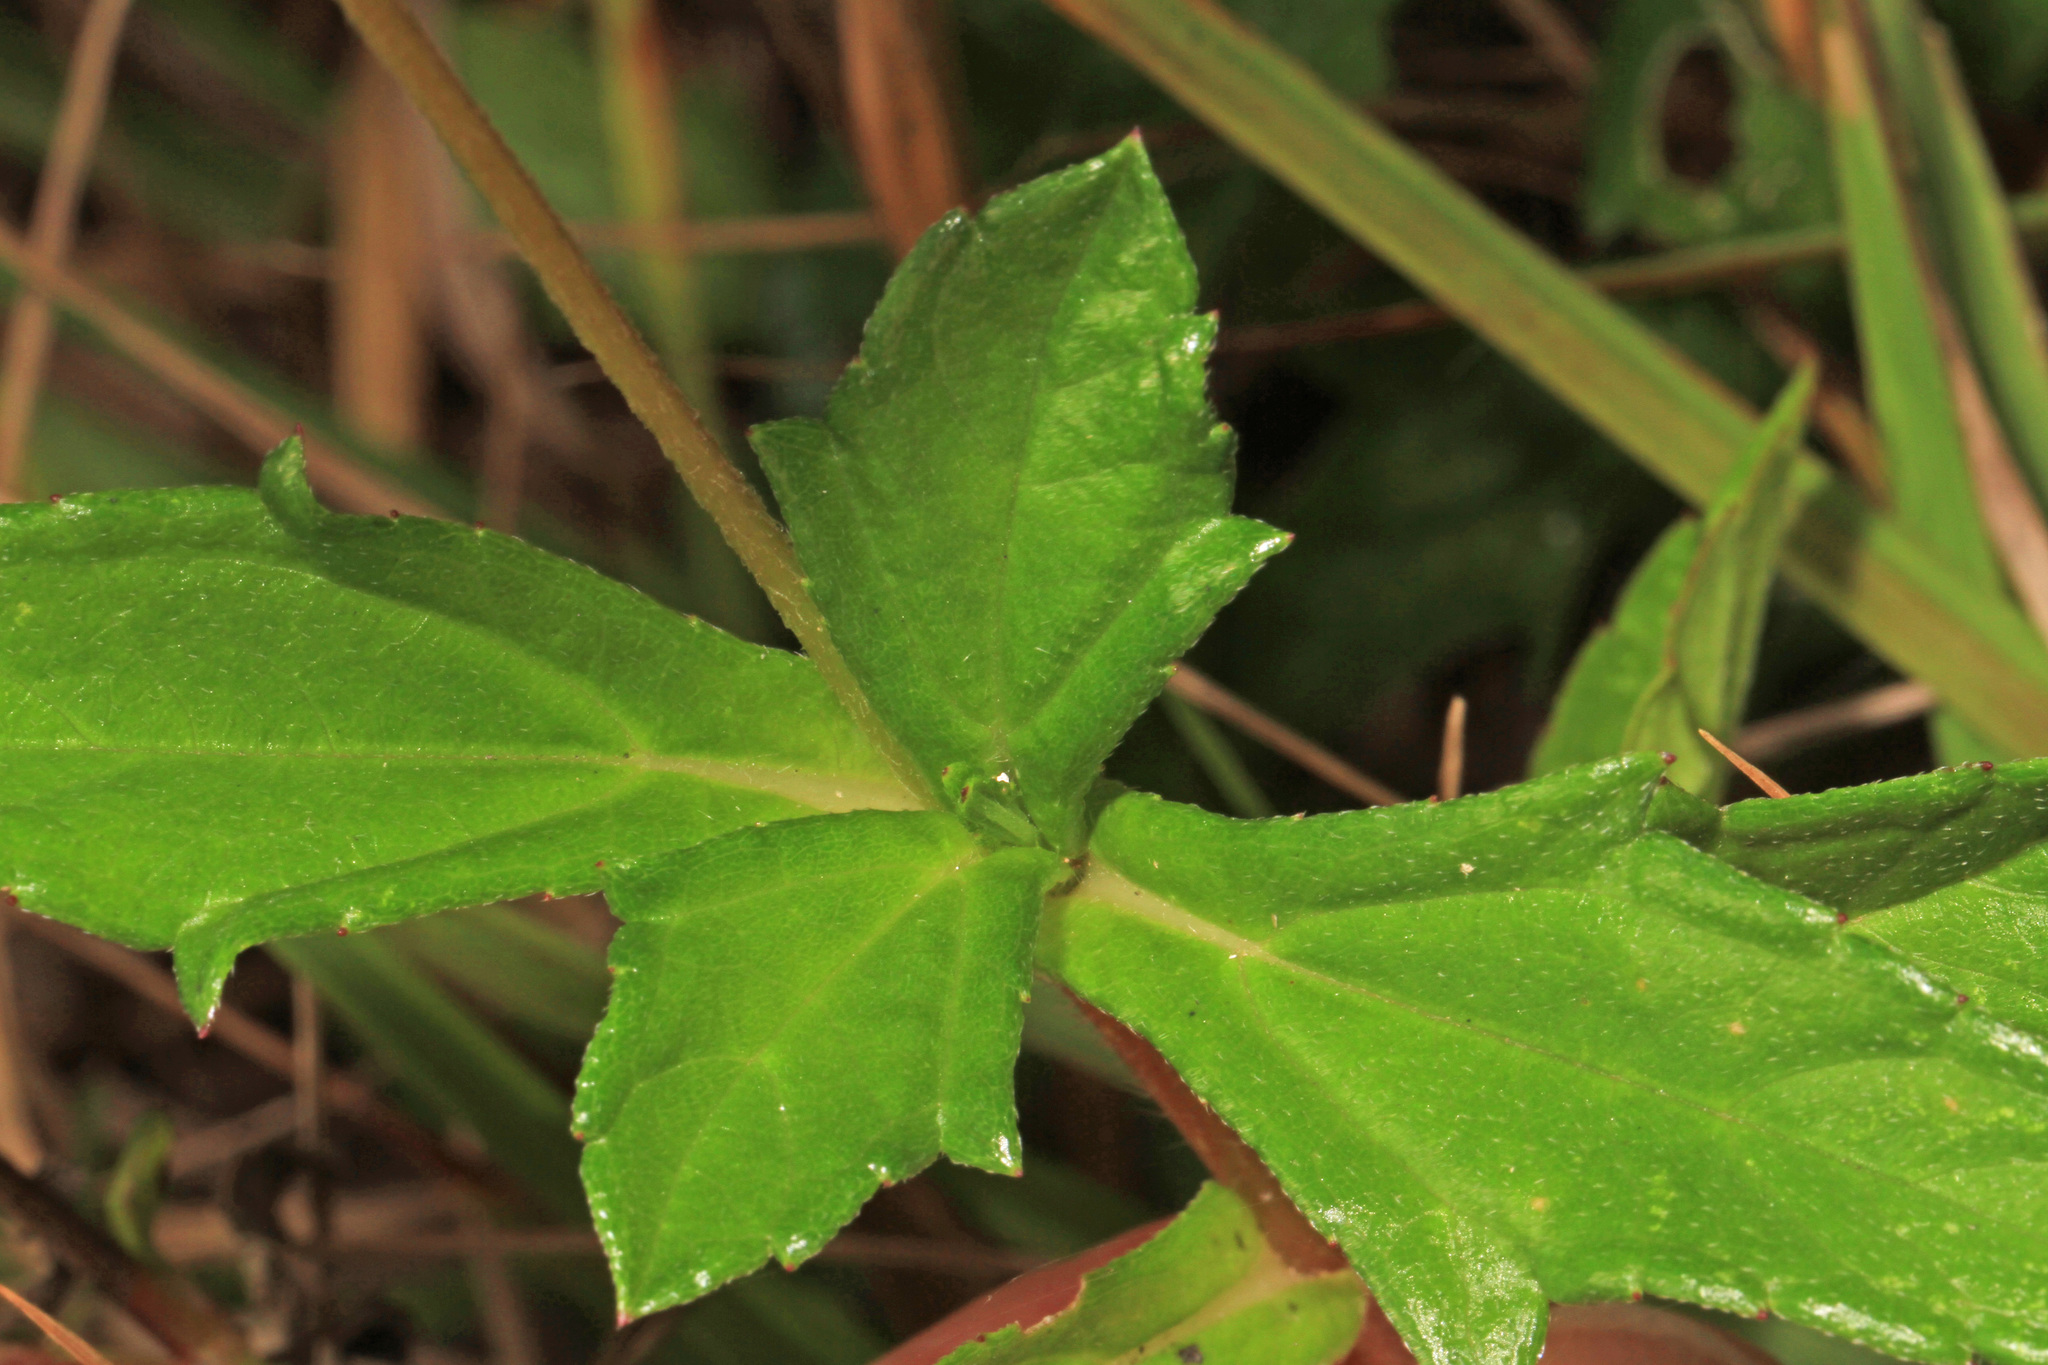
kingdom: Plantae
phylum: Tracheophyta
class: Magnoliopsida
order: Asterales
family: Asteraceae
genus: Sphagneticola
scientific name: Sphagneticola trilobata
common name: Bay biscayne creeping-oxeye
